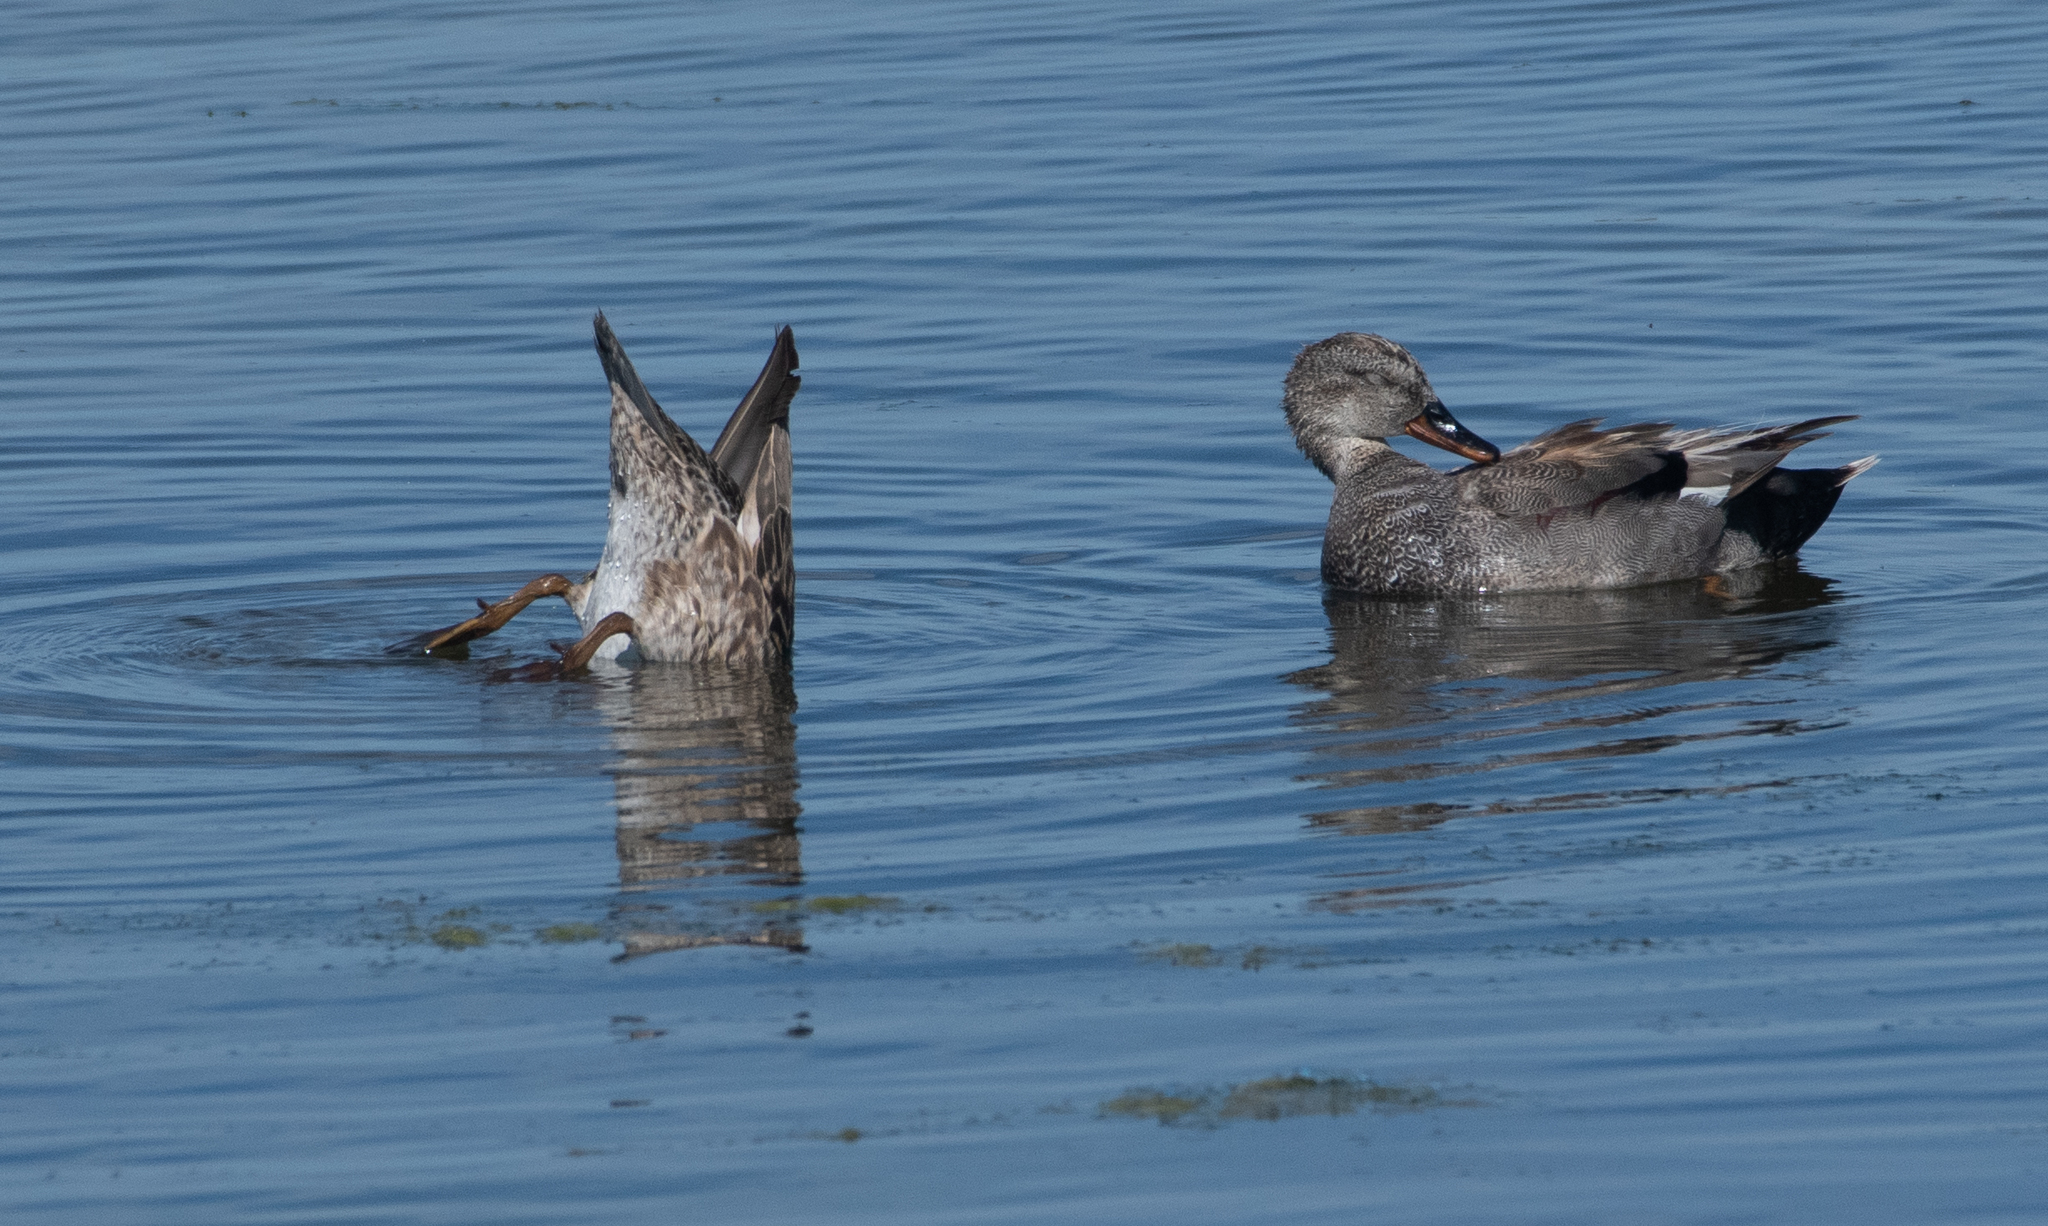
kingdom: Animalia
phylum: Chordata
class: Aves
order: Anseriformes
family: Anatidae
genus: Mareca
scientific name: Mareca strepera
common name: Gadwall
